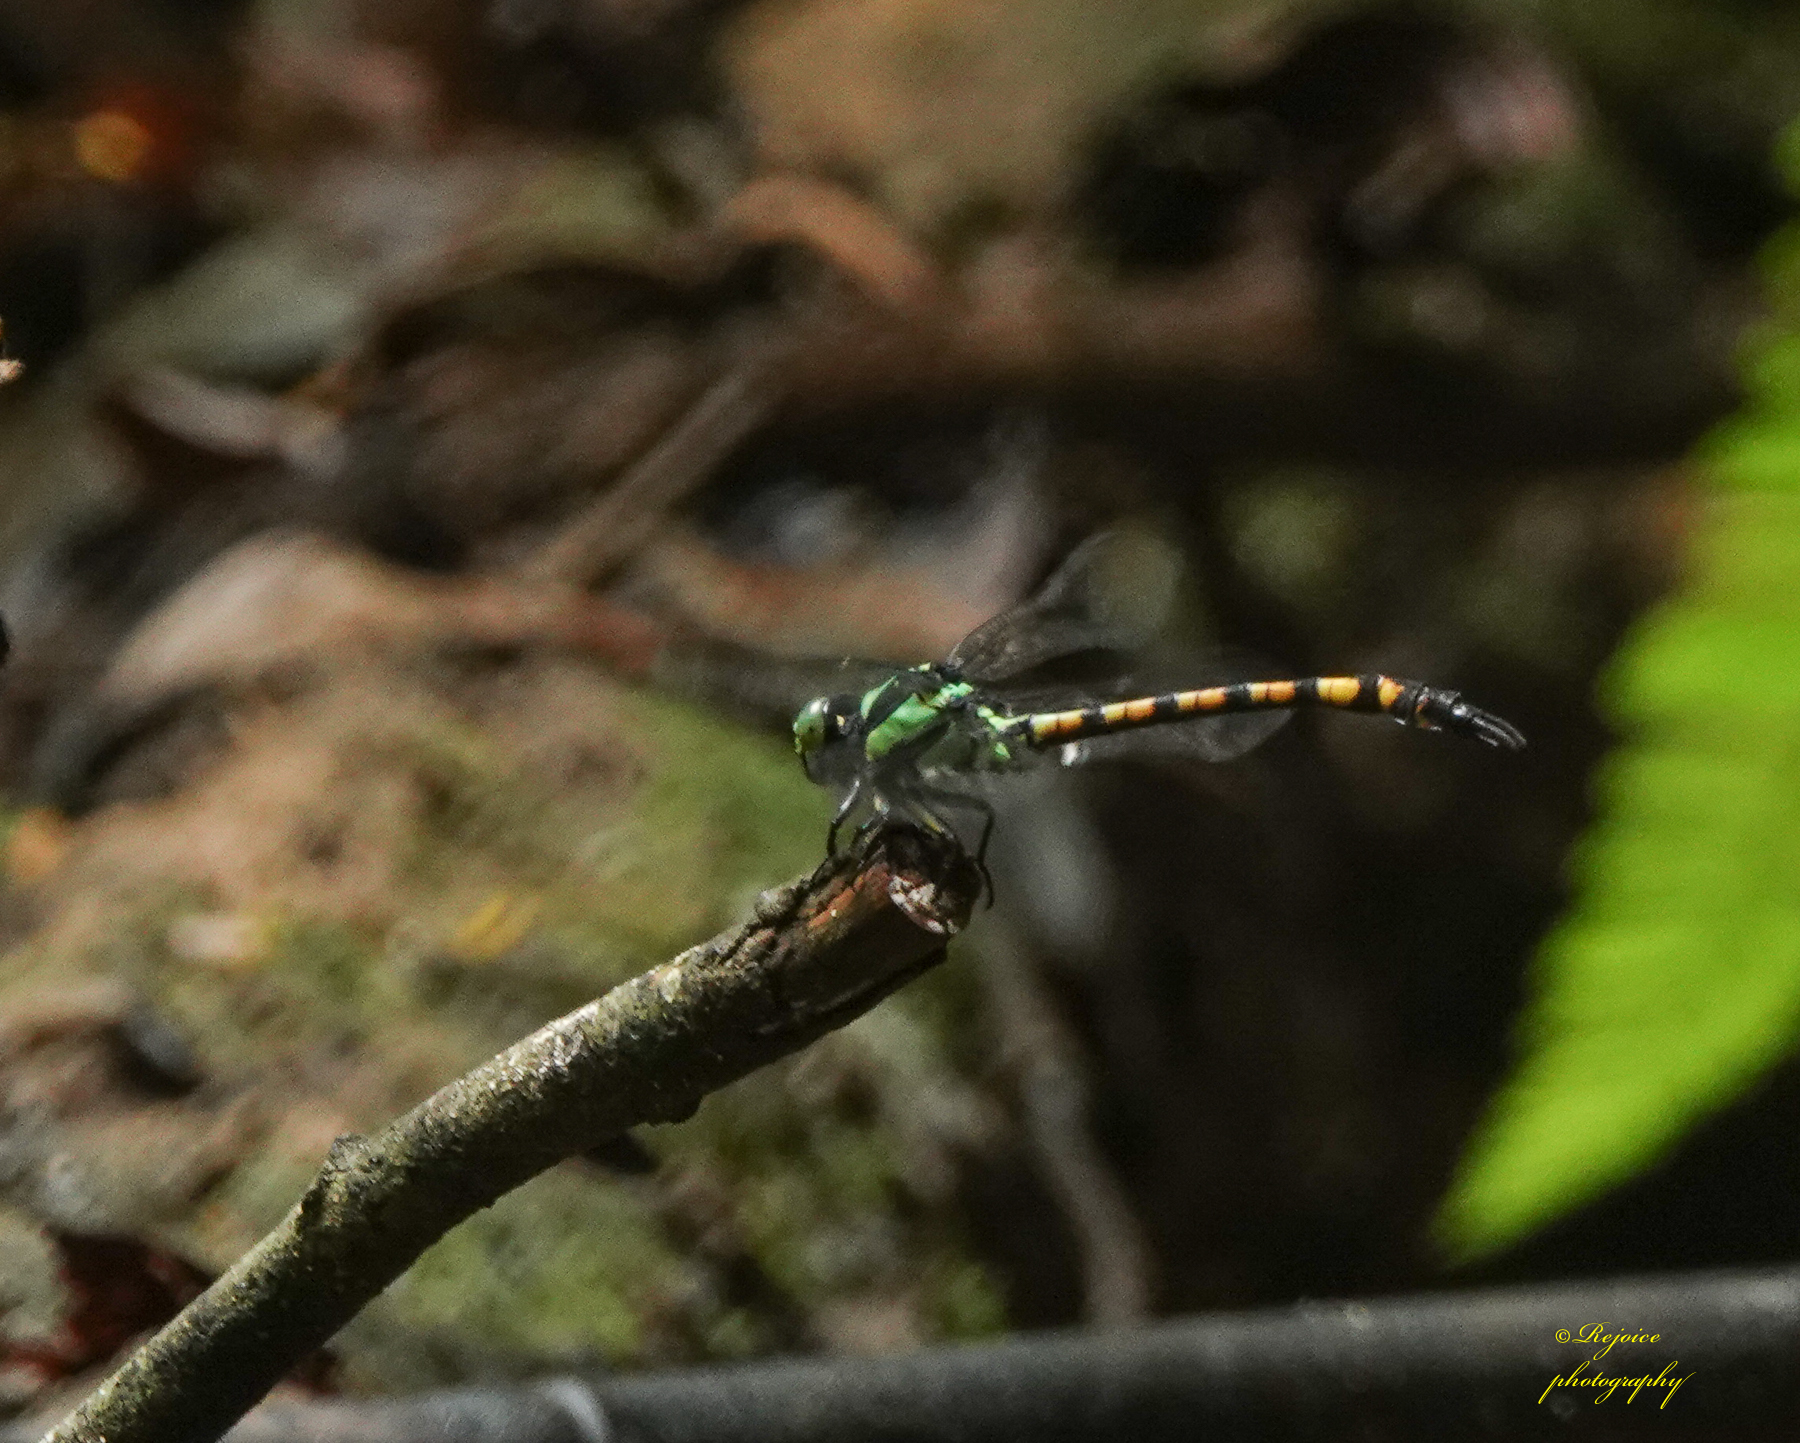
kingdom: Animalia
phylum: Arthropoda
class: Insecta
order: Odonata
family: Gomphidae
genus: Megalogomphus
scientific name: Megalogomphus smithii
